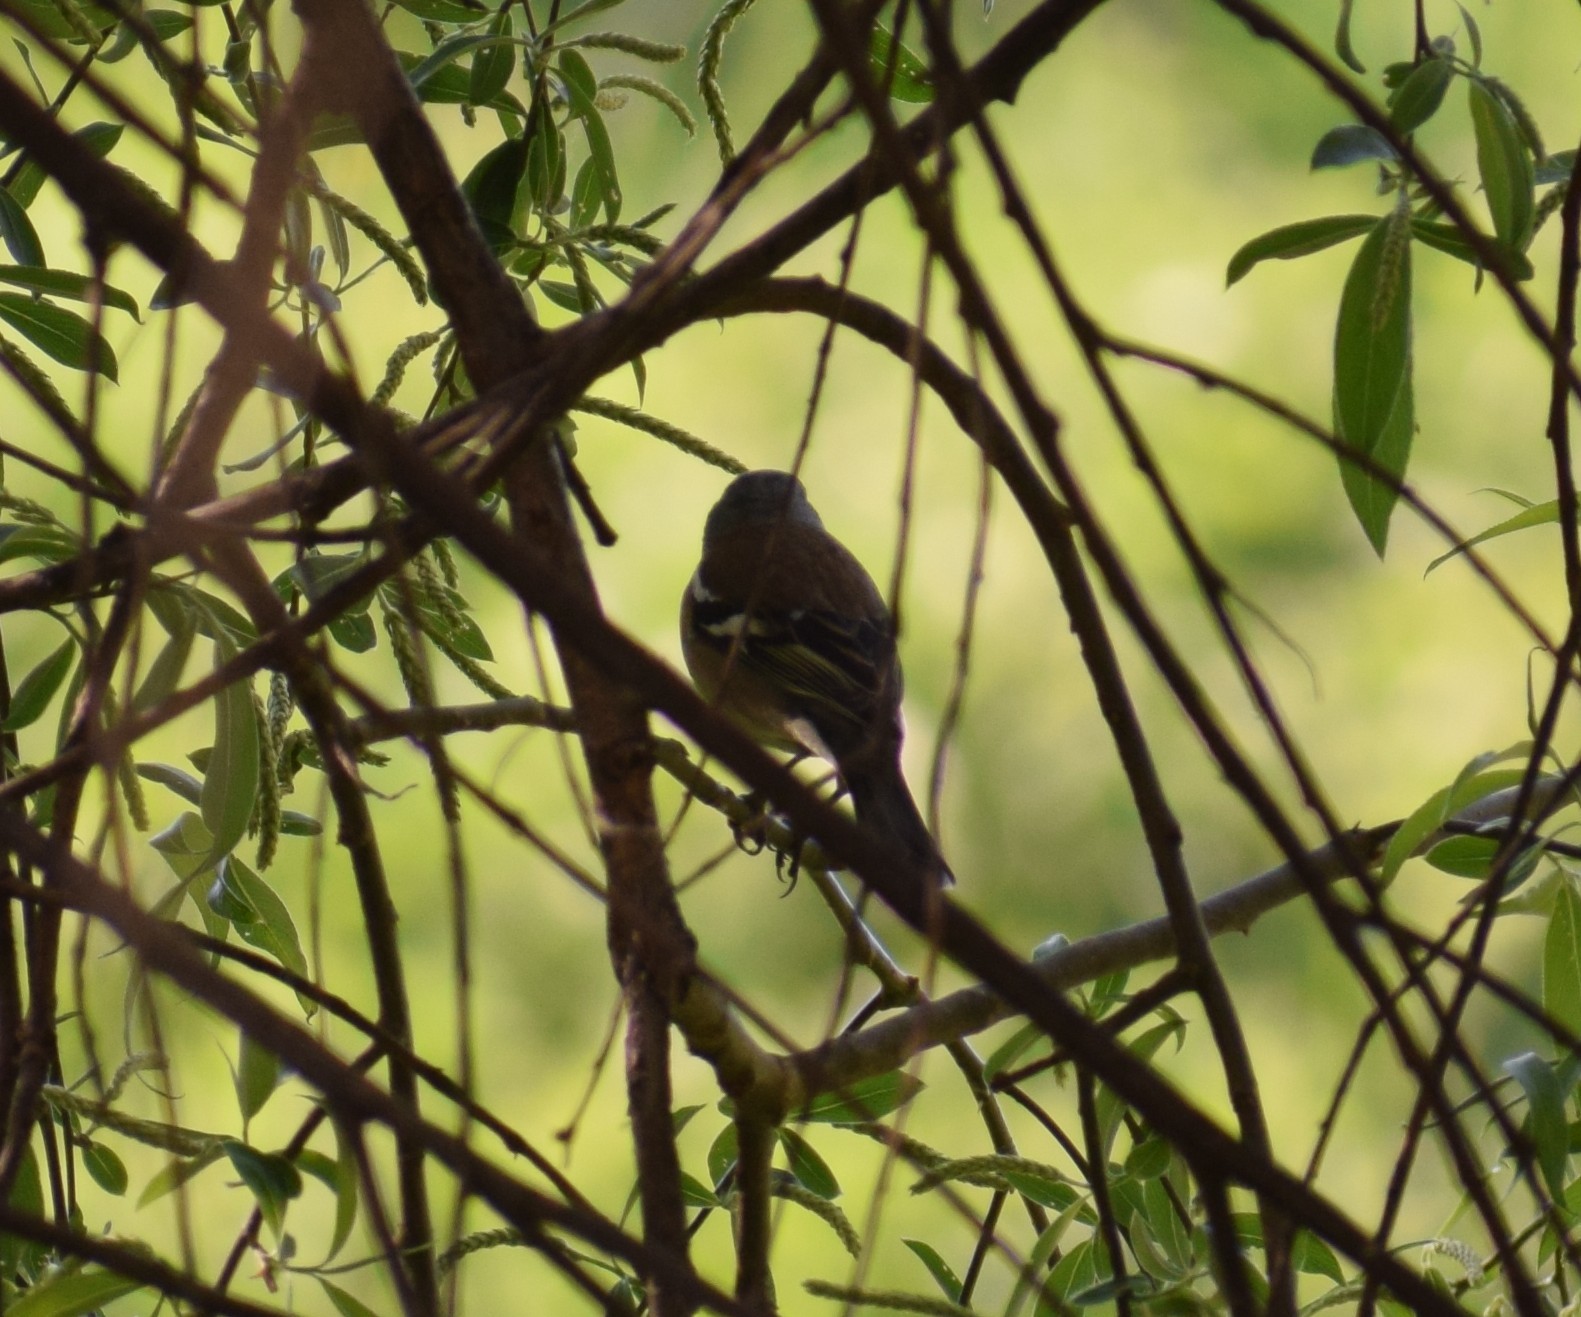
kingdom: Animalia
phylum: Chordata
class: Aves
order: Passeriformes
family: Fringillidae
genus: Fringilla
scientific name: Fringilla coelebs
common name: Common chaffinch
